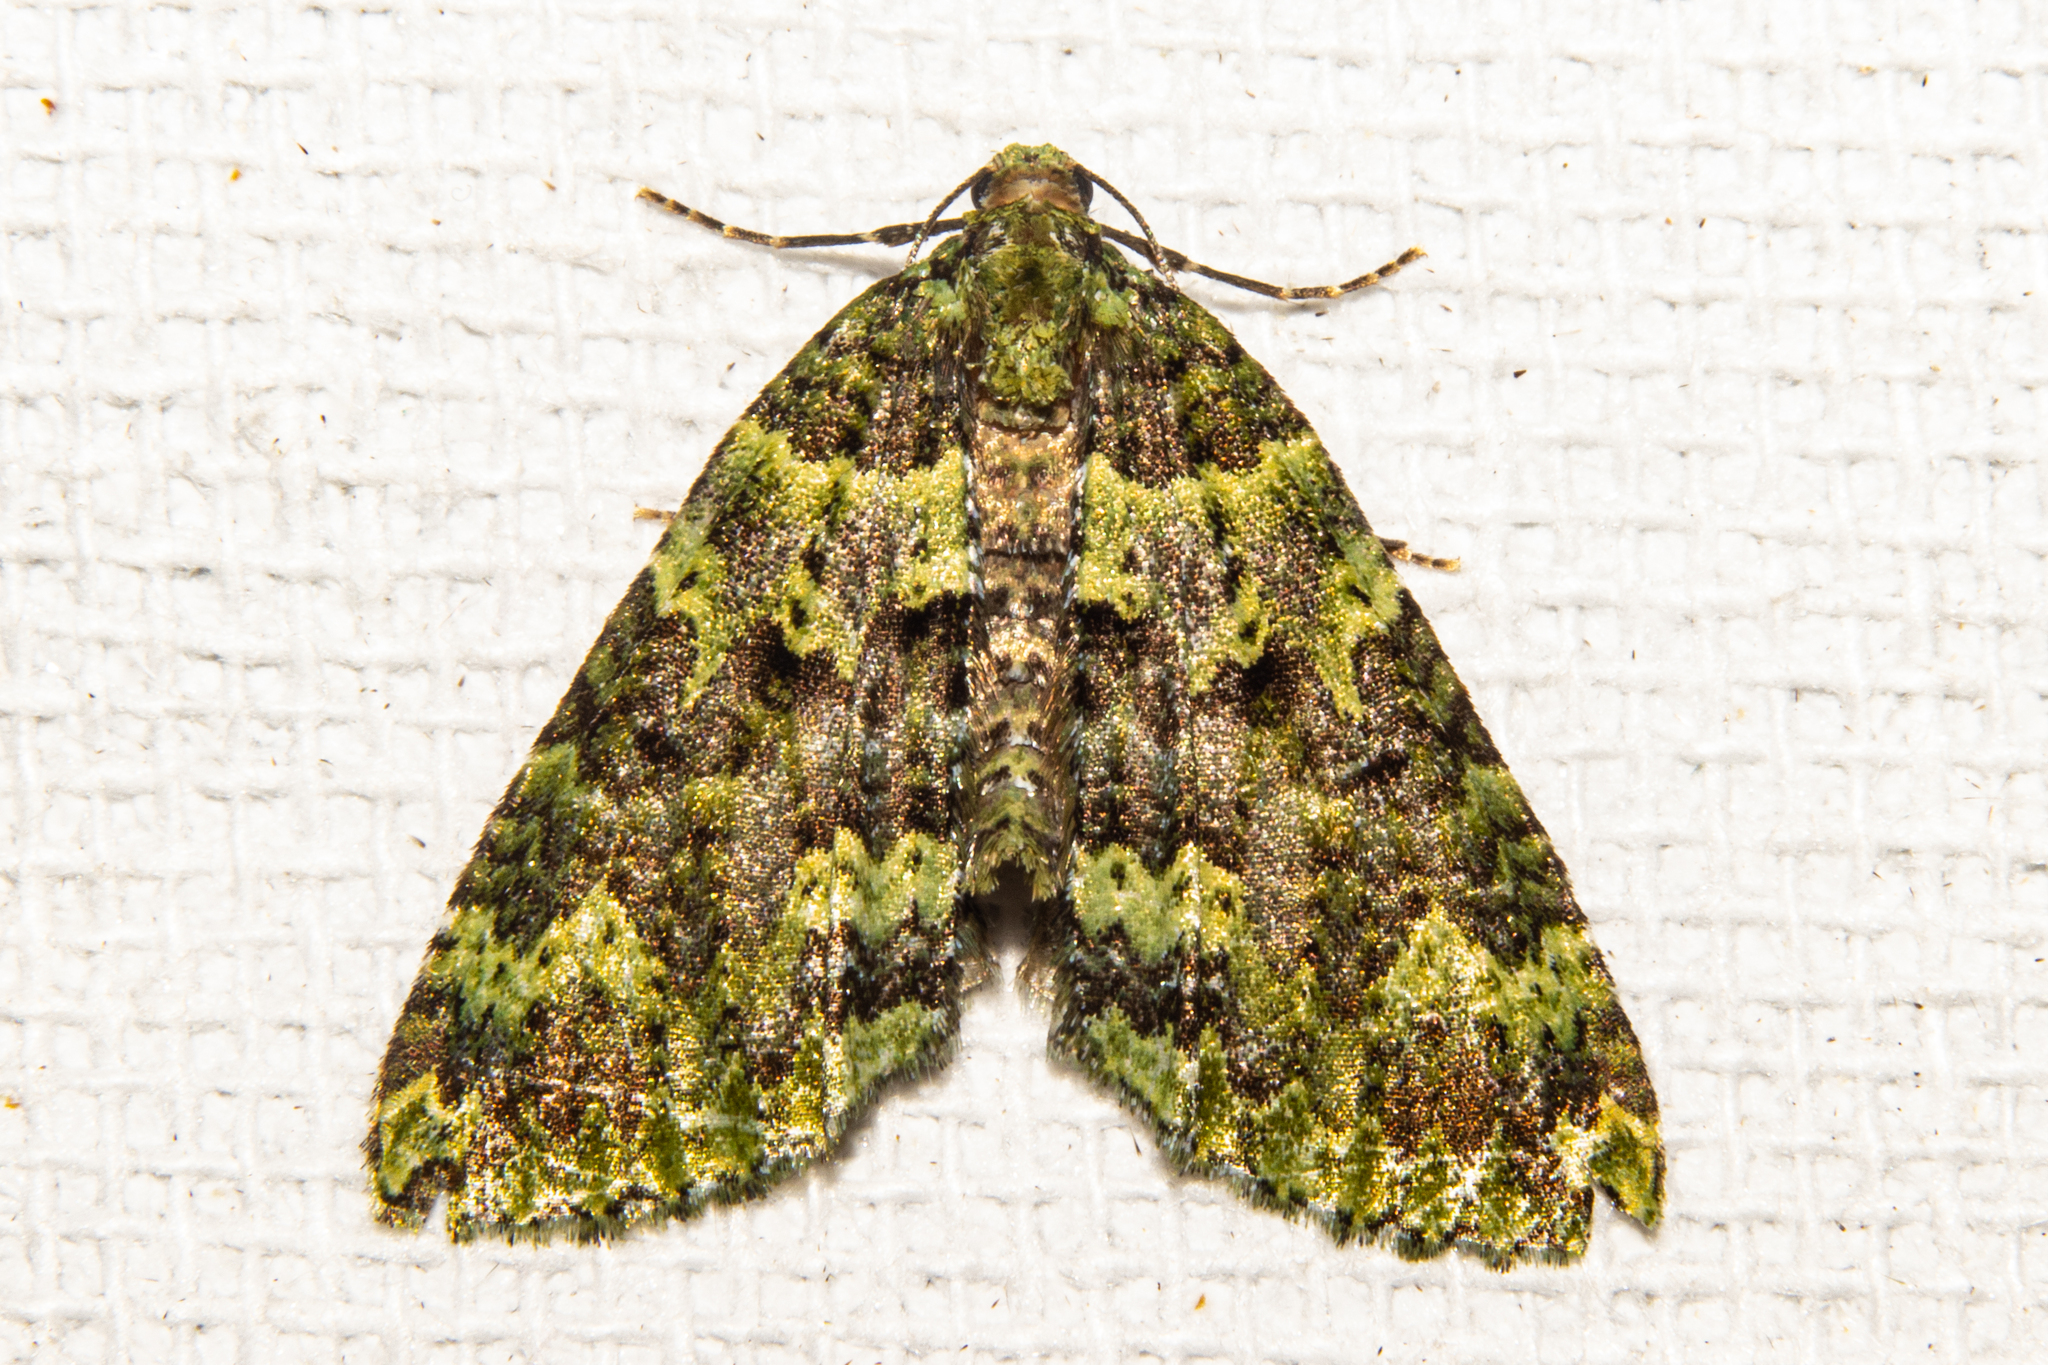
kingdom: Animalia
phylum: Arthropoda
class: Insecta
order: Lepidoptera
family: Geometridae
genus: Austrocidaria
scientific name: Austrocidaria callichlora
